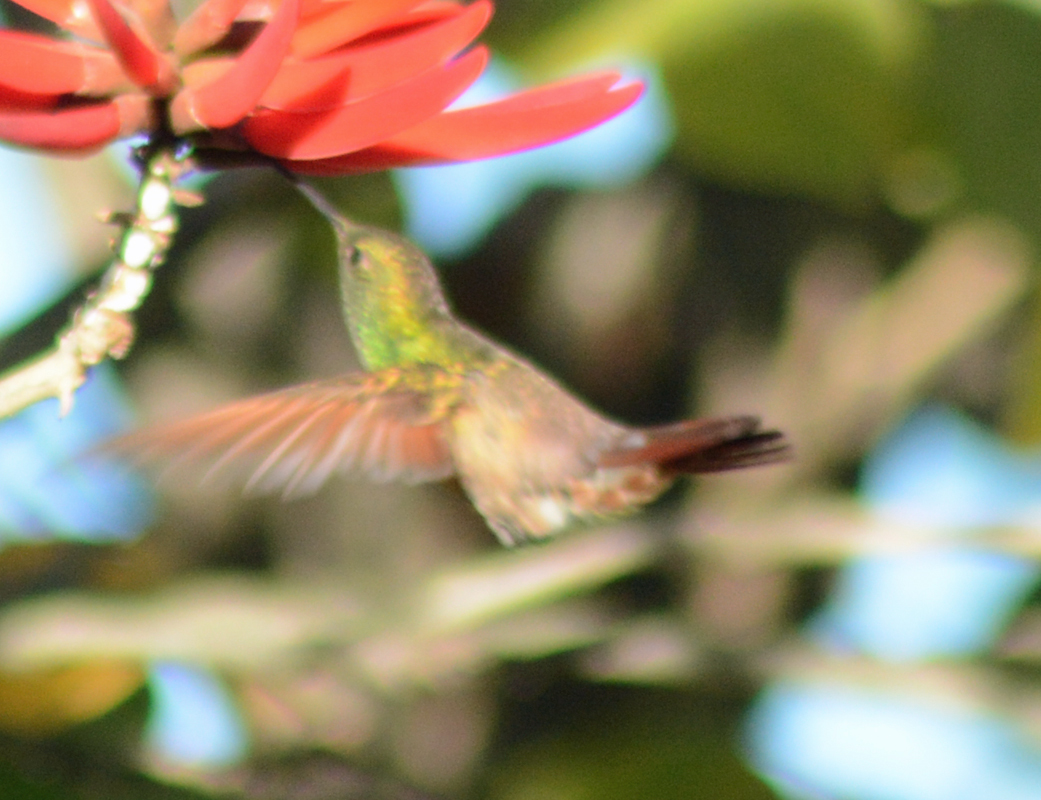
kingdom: Animalia
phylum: Chordata
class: Aves
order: Apodiformes
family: Trochilidae
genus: Saucerottia
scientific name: Saucerottia beryllina
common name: Berylline hummingbird
